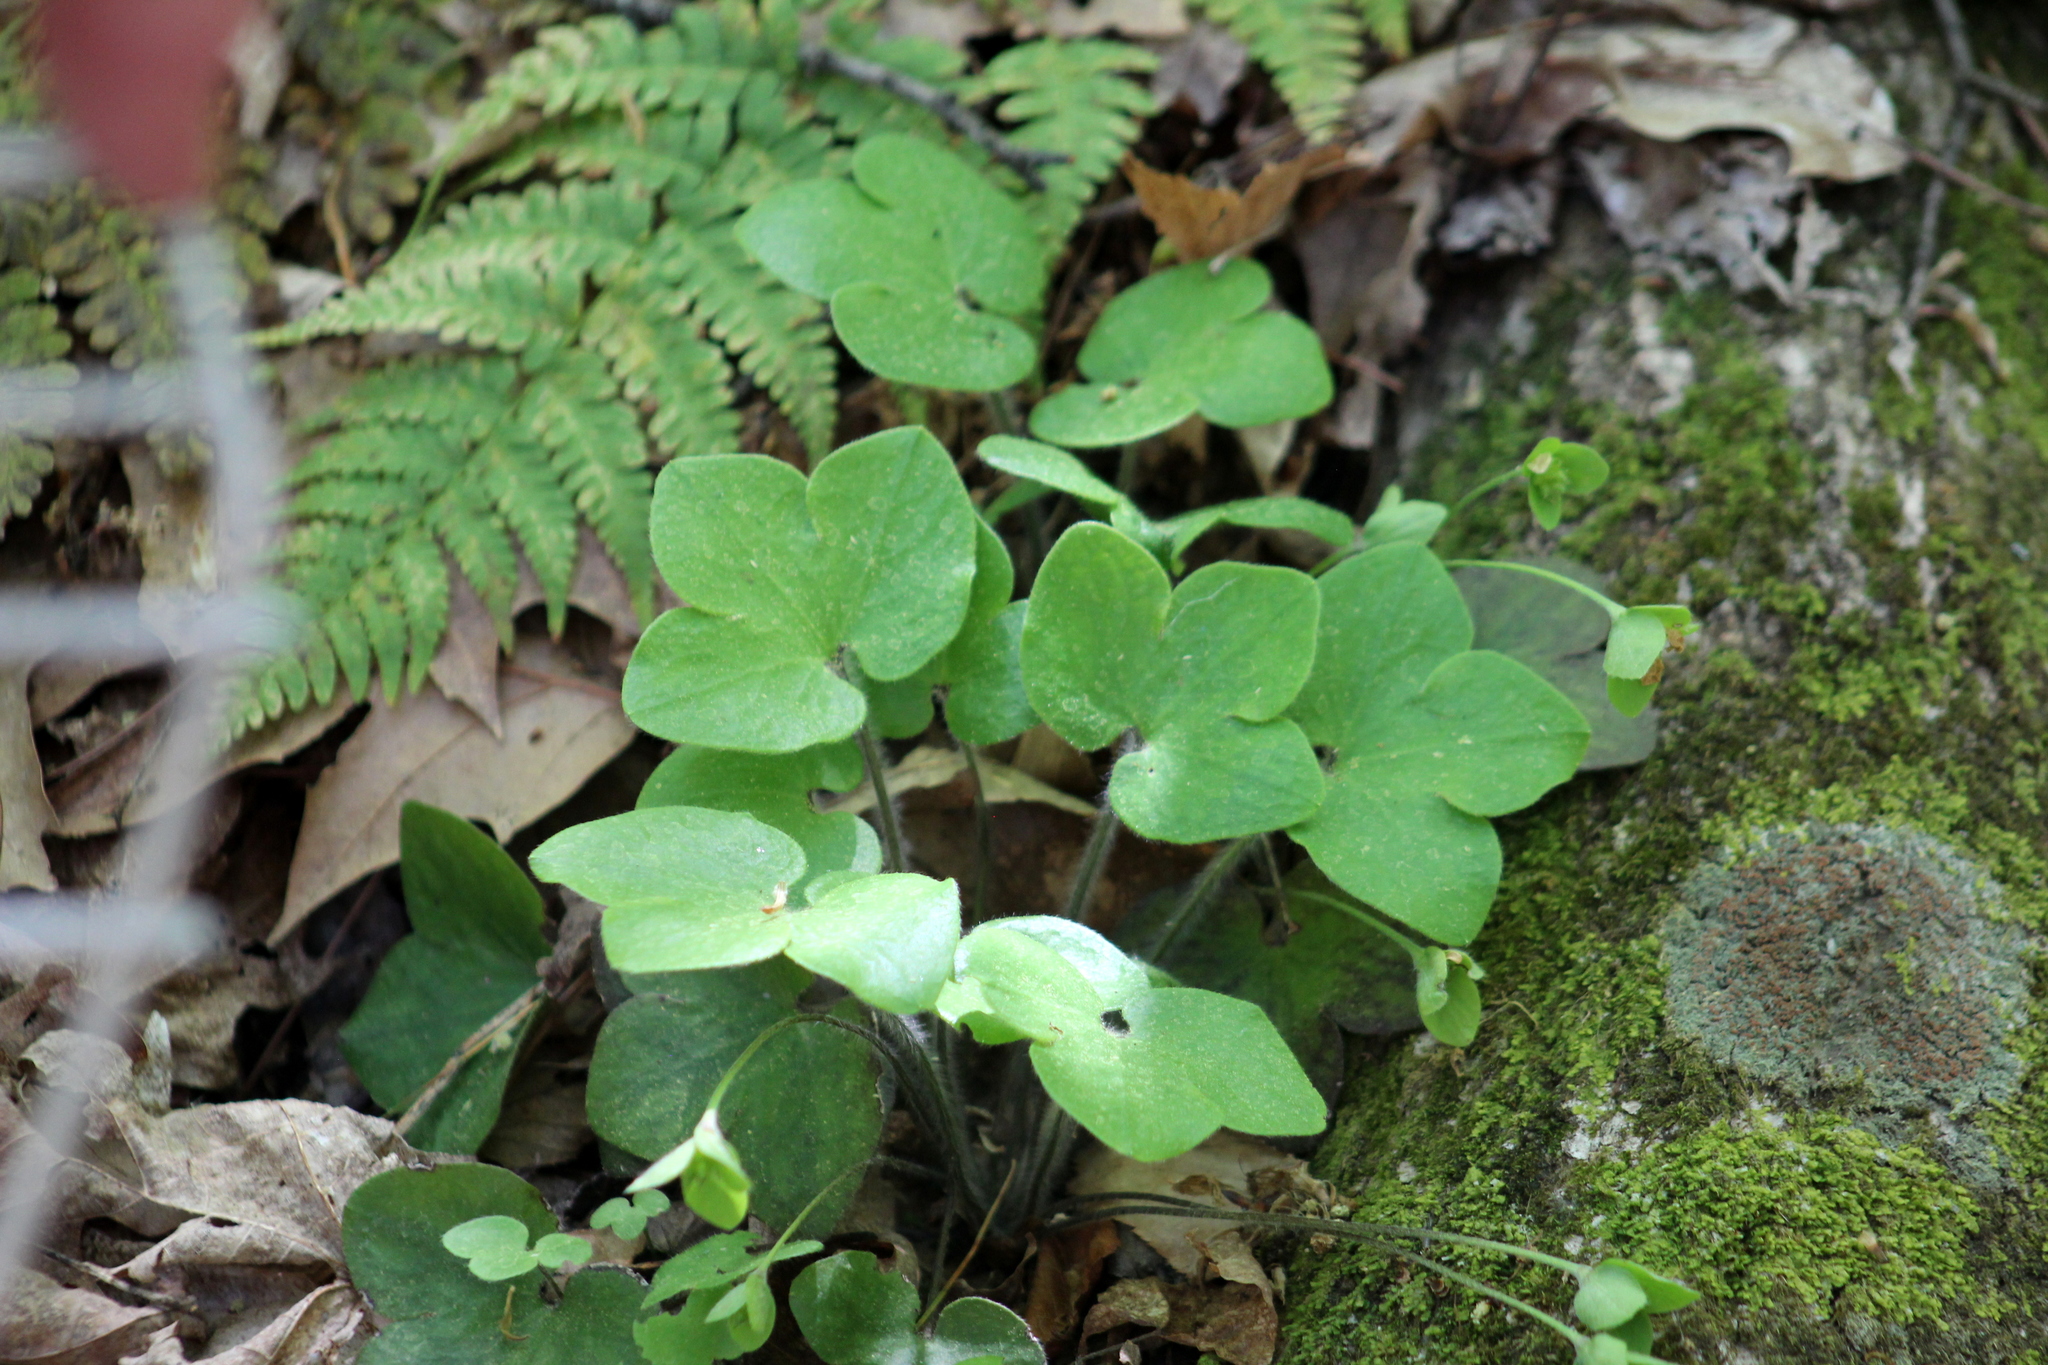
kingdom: Plantae
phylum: Tracheophyta
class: Magnoliopsida
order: Ranunculales
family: Ranunculaceae
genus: Hepatica
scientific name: Hepatica americana
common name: American hepatica
